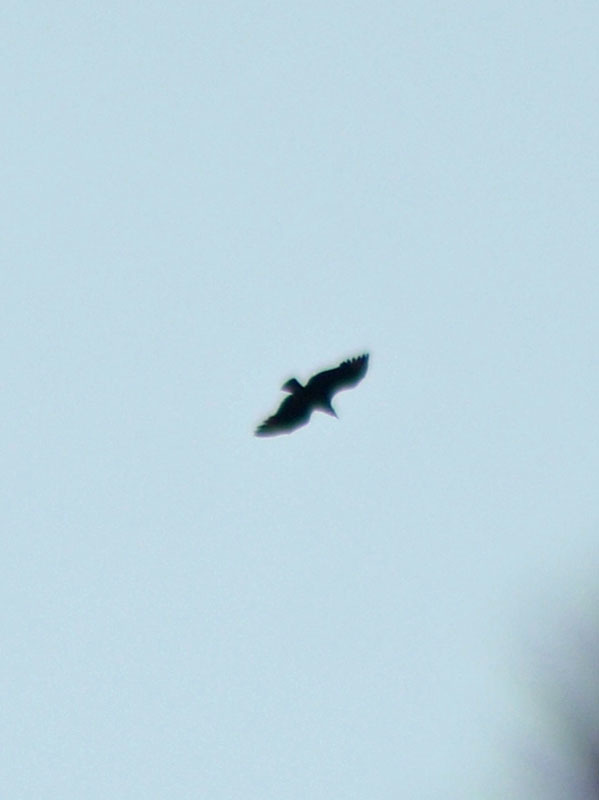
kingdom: Animalia
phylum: Chordata
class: Aves
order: Accipitriformes
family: Cathartidae
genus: Coragyps
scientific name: Coragyps atratus
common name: Black vulture
